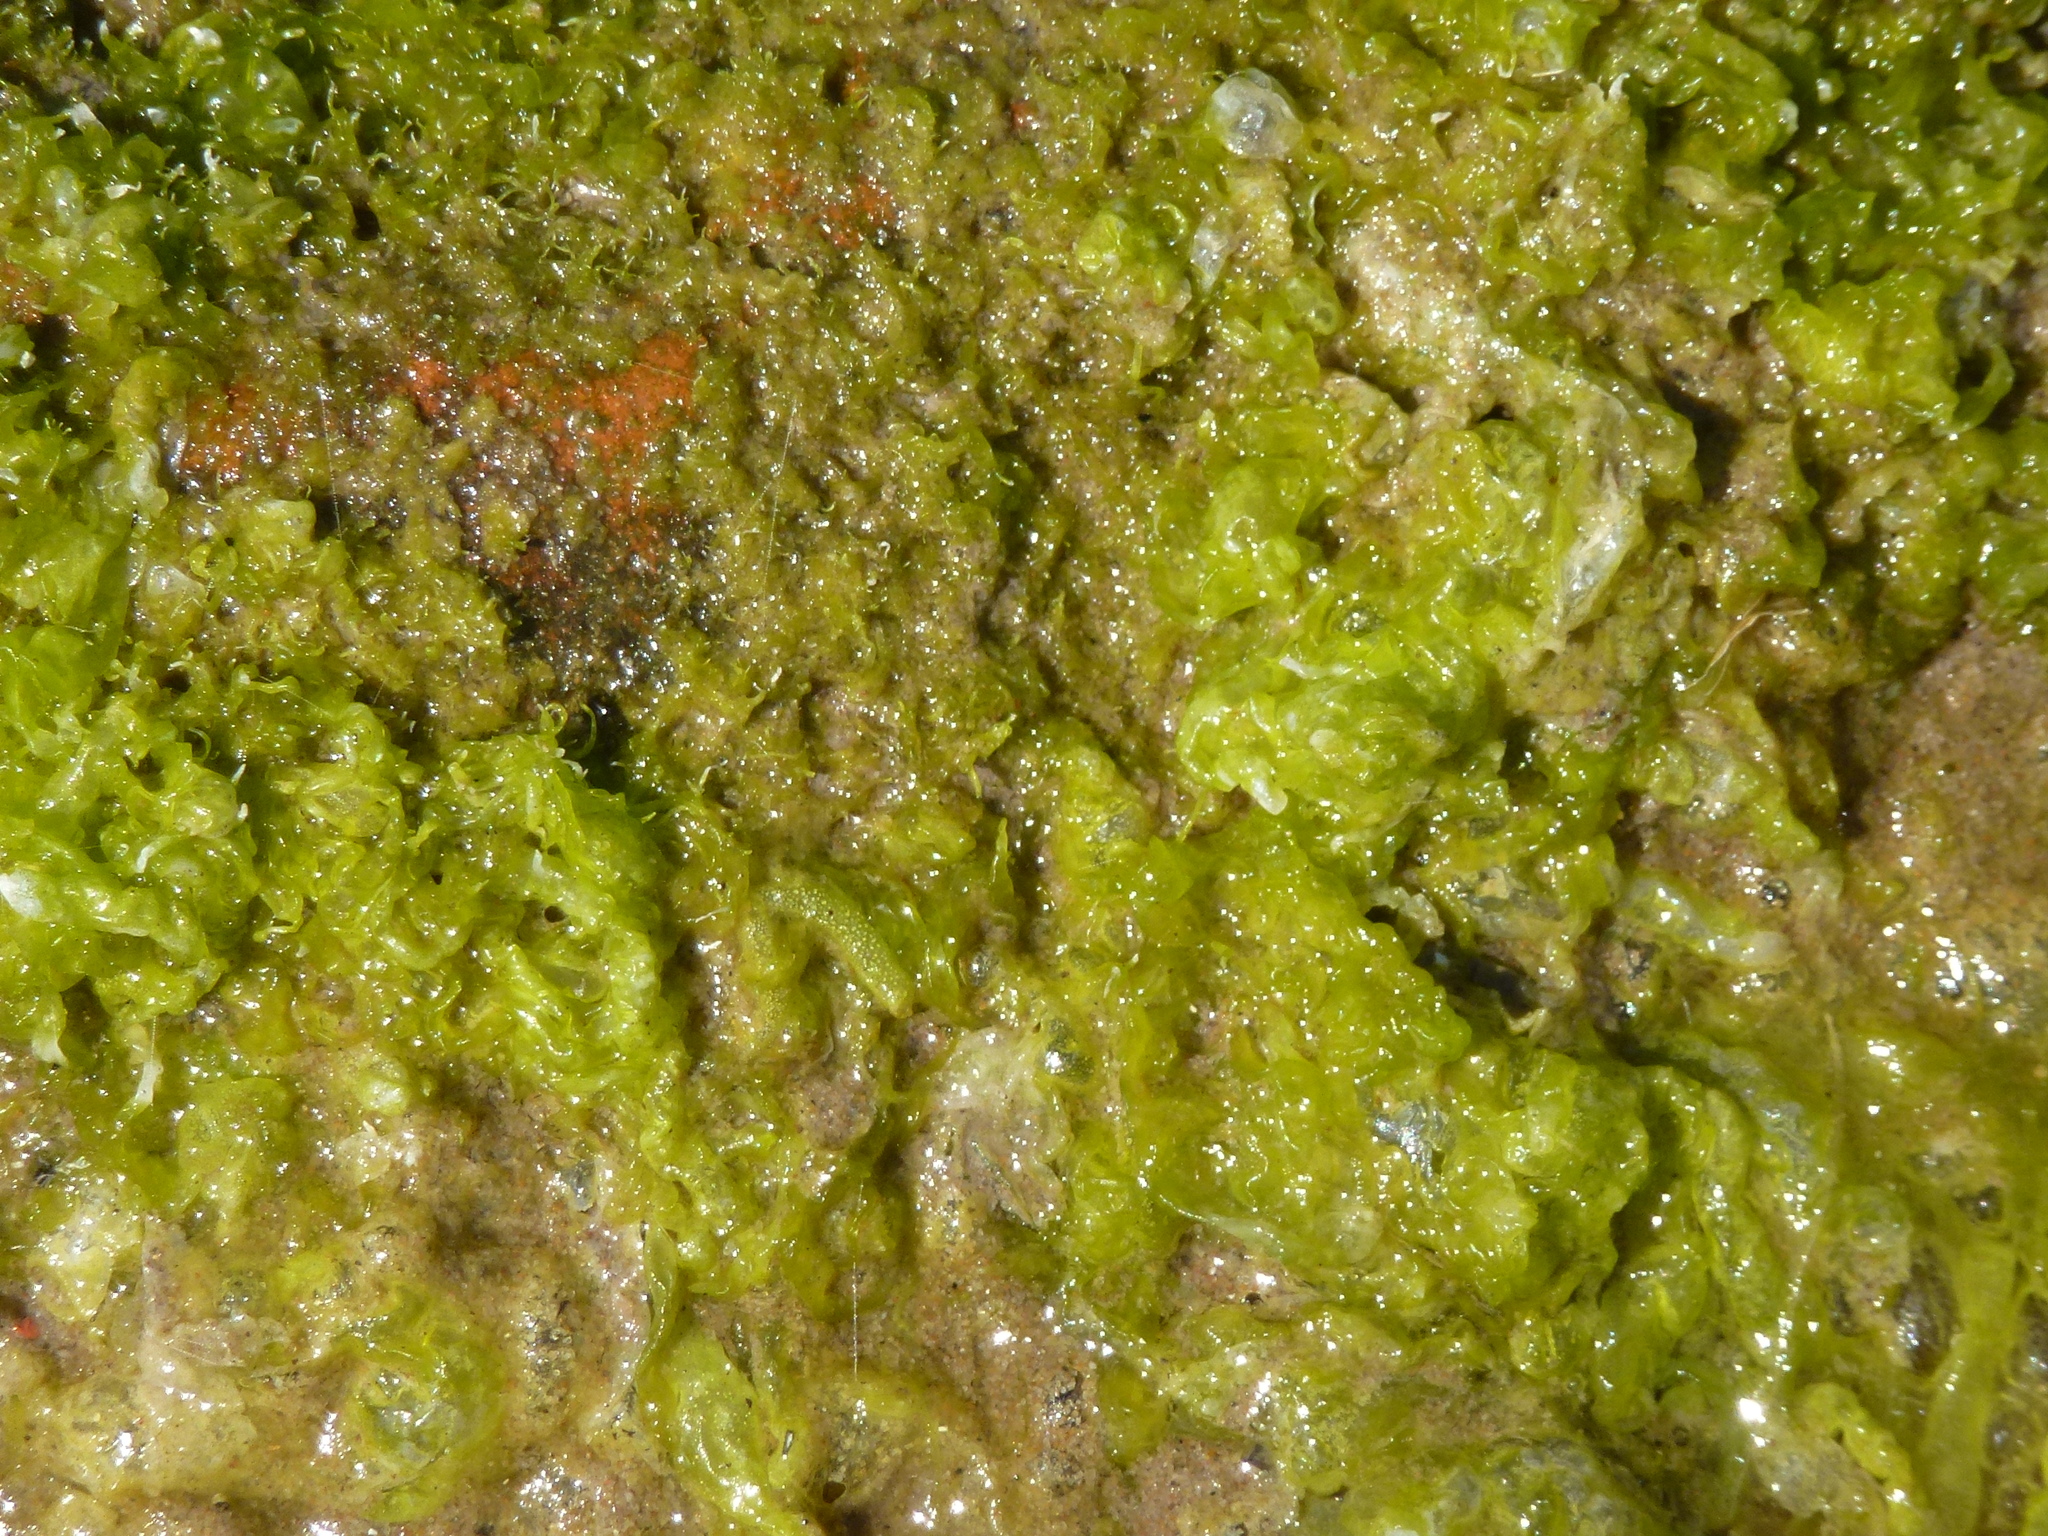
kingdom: Plantae
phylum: Chlorophyta
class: Ulvophyceae
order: Ulvales
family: Ulvaceae
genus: Ulva
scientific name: Ulva intestinalis
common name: Gut weed
